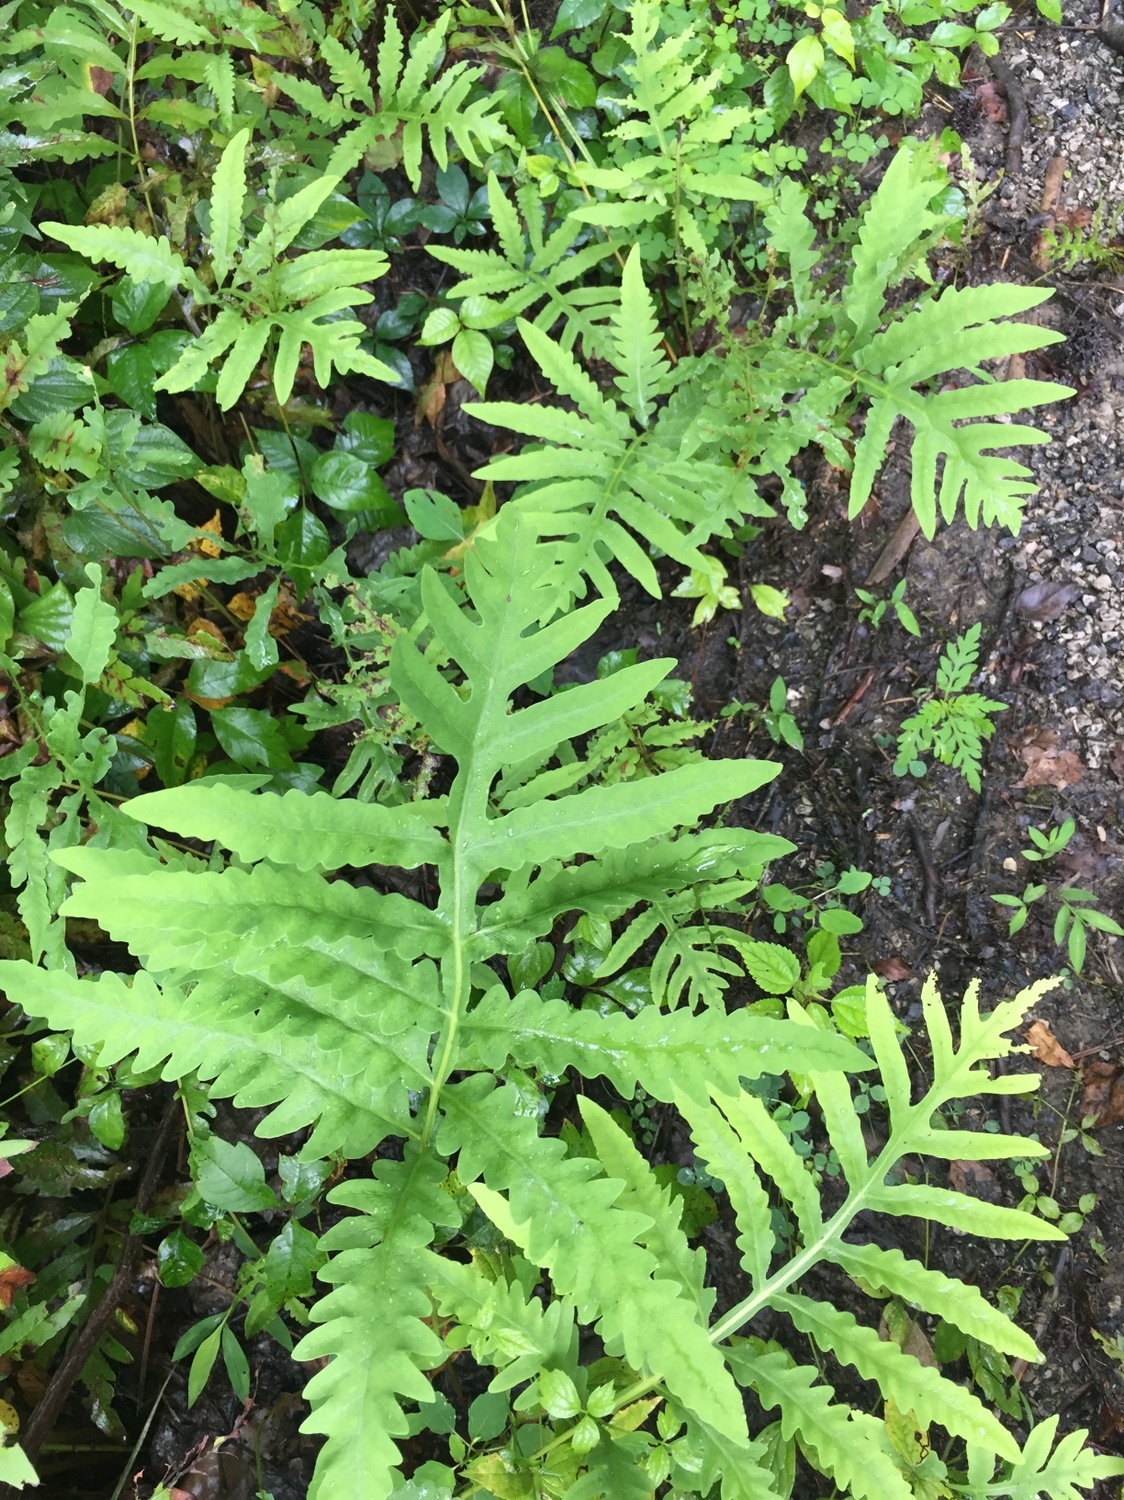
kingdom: Plantae
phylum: Tracheophyta
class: Polypodiopsida
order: Polypodiales
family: Onocleaceae
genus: Onoclea
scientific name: Onoclea sensibilis
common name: Sensitive fern
